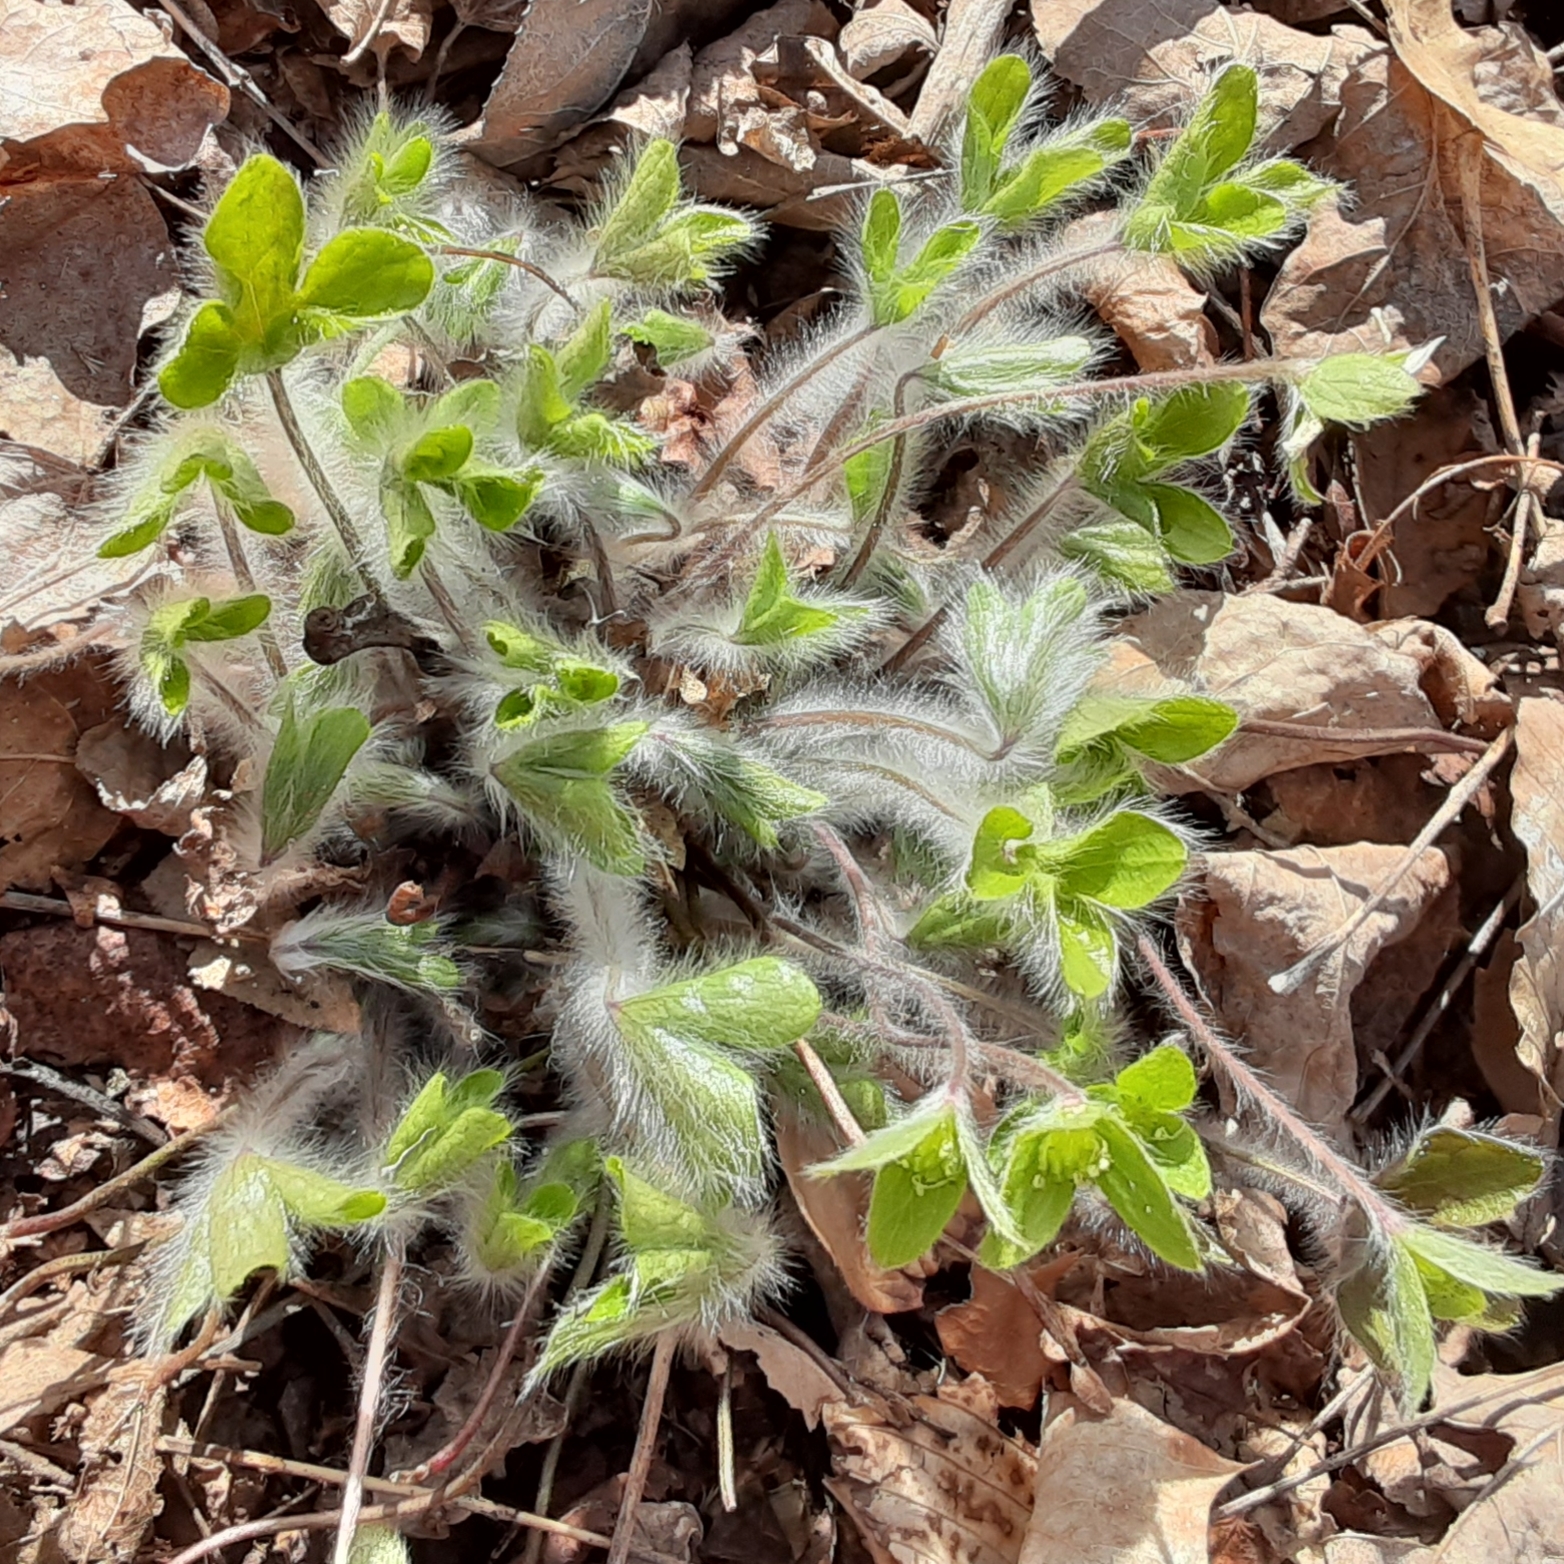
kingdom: Plantae
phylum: Tracheophyta
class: Magnoliopsida
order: Ranunculales
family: Ranunculaceae
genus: Hepatica
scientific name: Hepatica americana
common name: American hepatica
